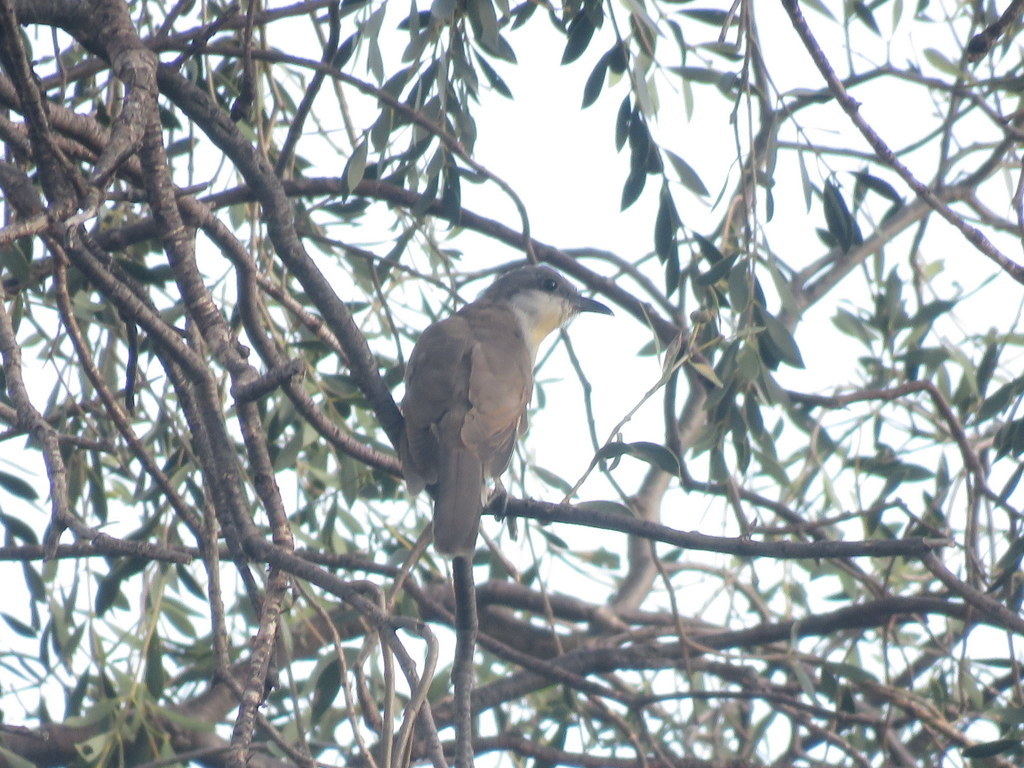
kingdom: Animalia
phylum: Chordata
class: Aves
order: Cuculiformes
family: Cuculidae
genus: Coccyzus
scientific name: Coccyzus melacoryphus
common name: Dark-billed cuckoo
